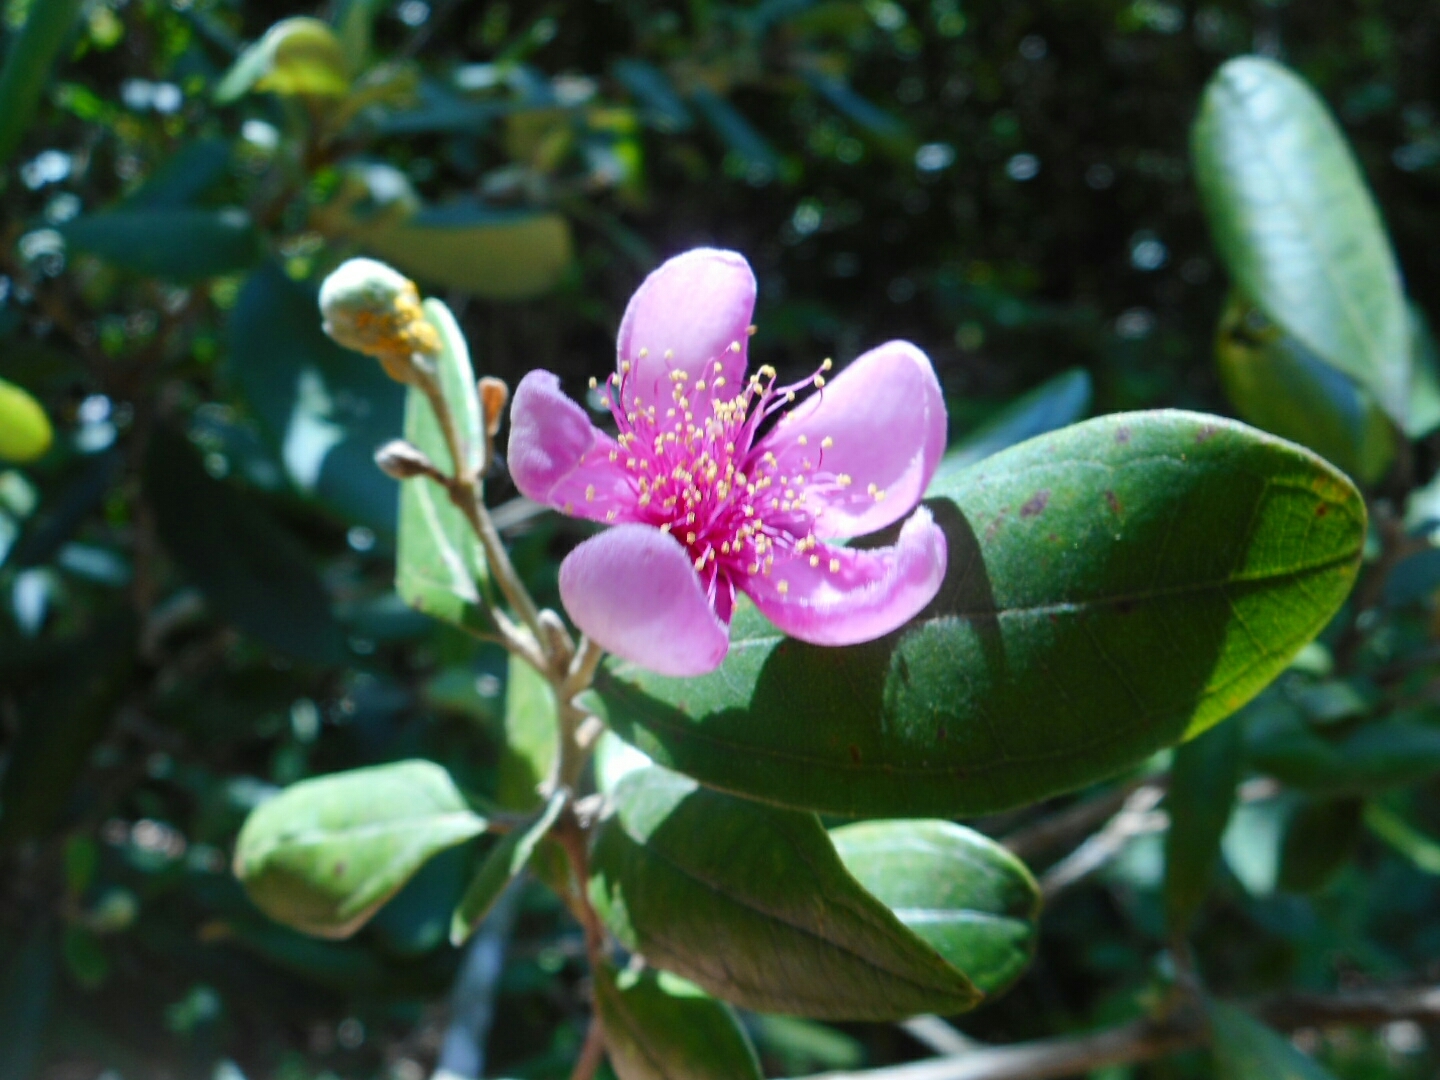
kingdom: Plantae
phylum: Tracheophyta
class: Magnoliopsida
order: Myrtales
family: Myrtaceae
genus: Rhodomyrtus
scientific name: Rhodomyrtus tomentosa
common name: Rose myrtle
